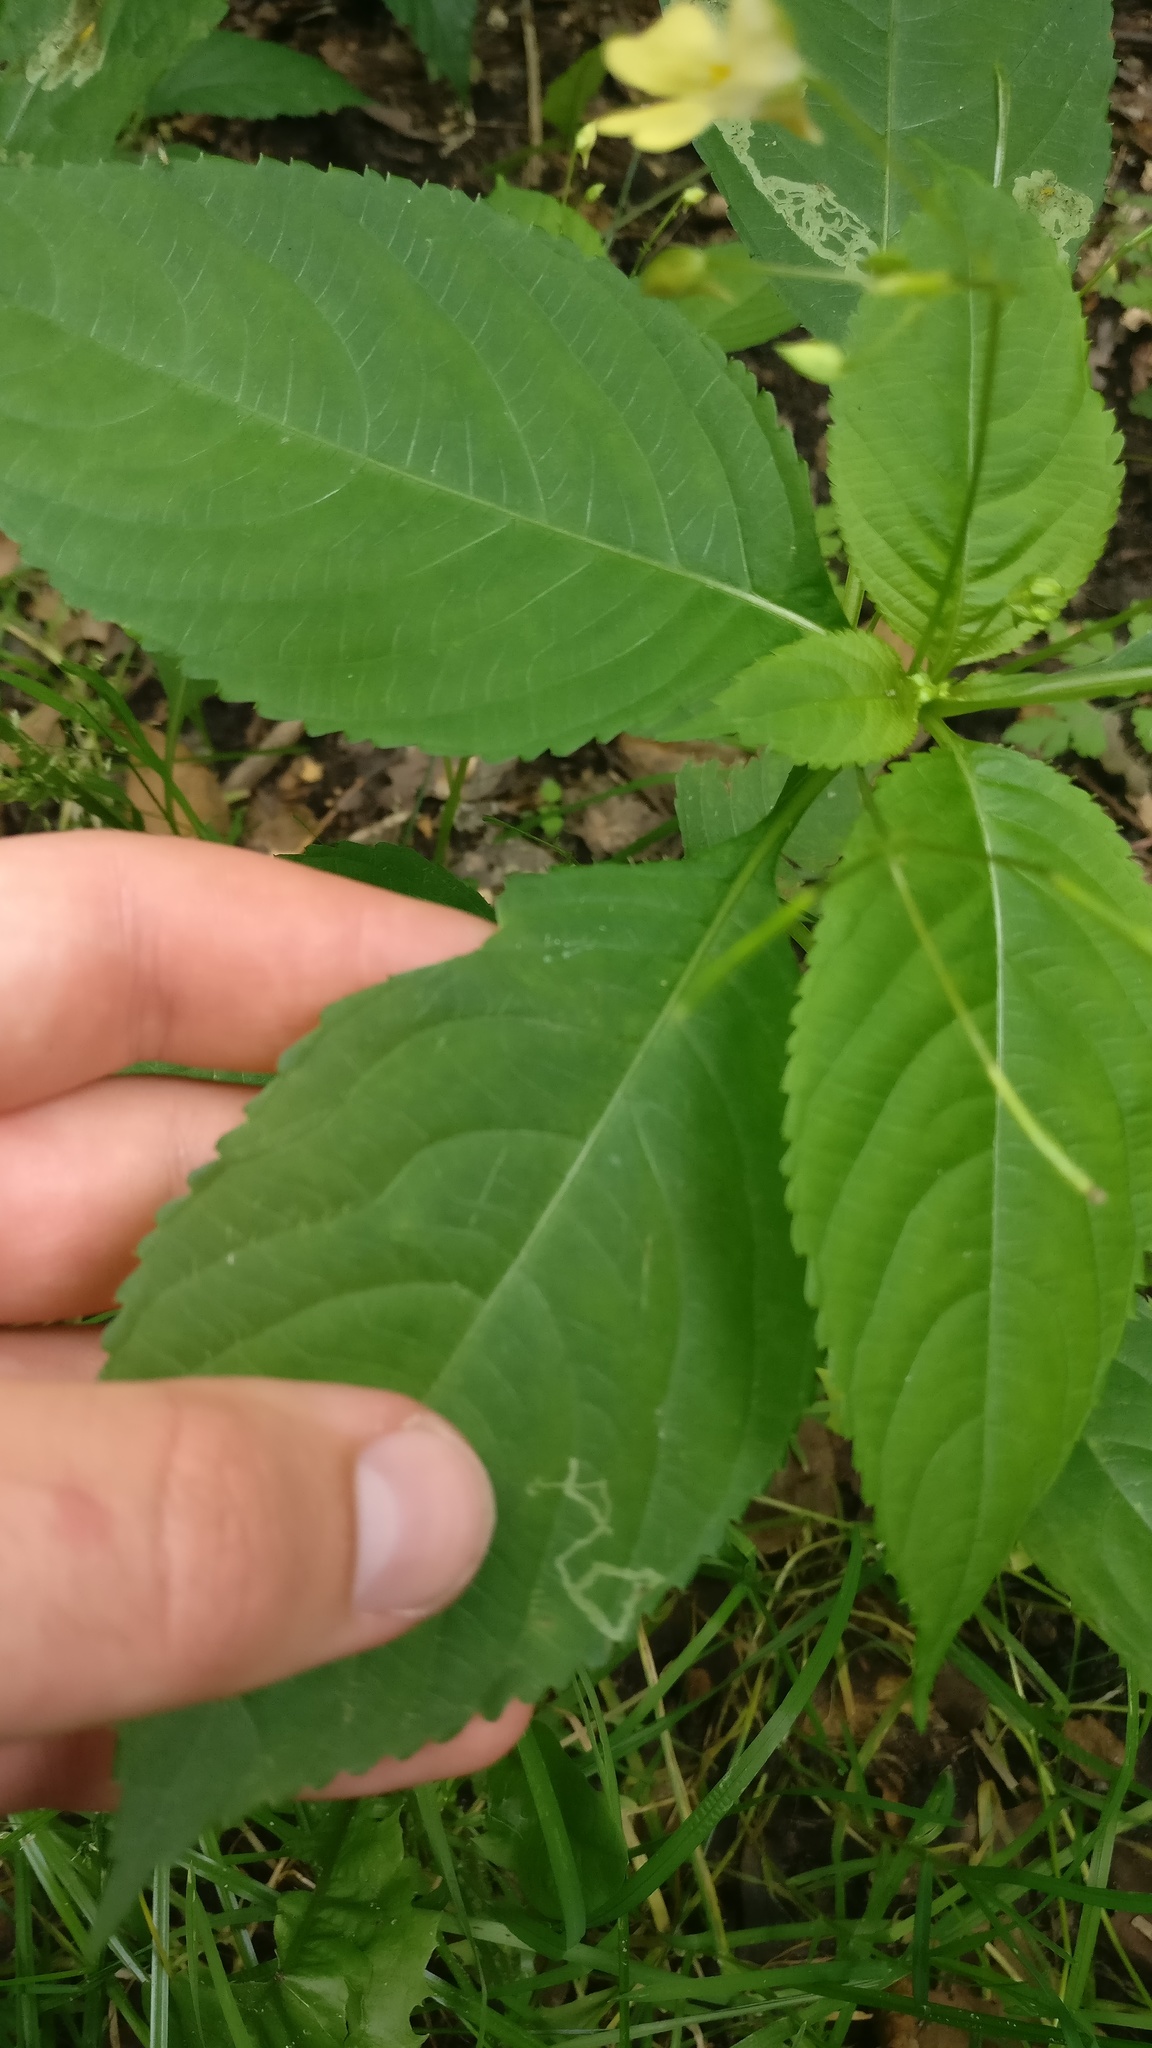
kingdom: Plantae
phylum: Tracheophyta
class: Magnoliopsida
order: Ericales
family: Balsaminaceae
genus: Impatiens
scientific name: Impatiens parviflora
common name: Small balsam
